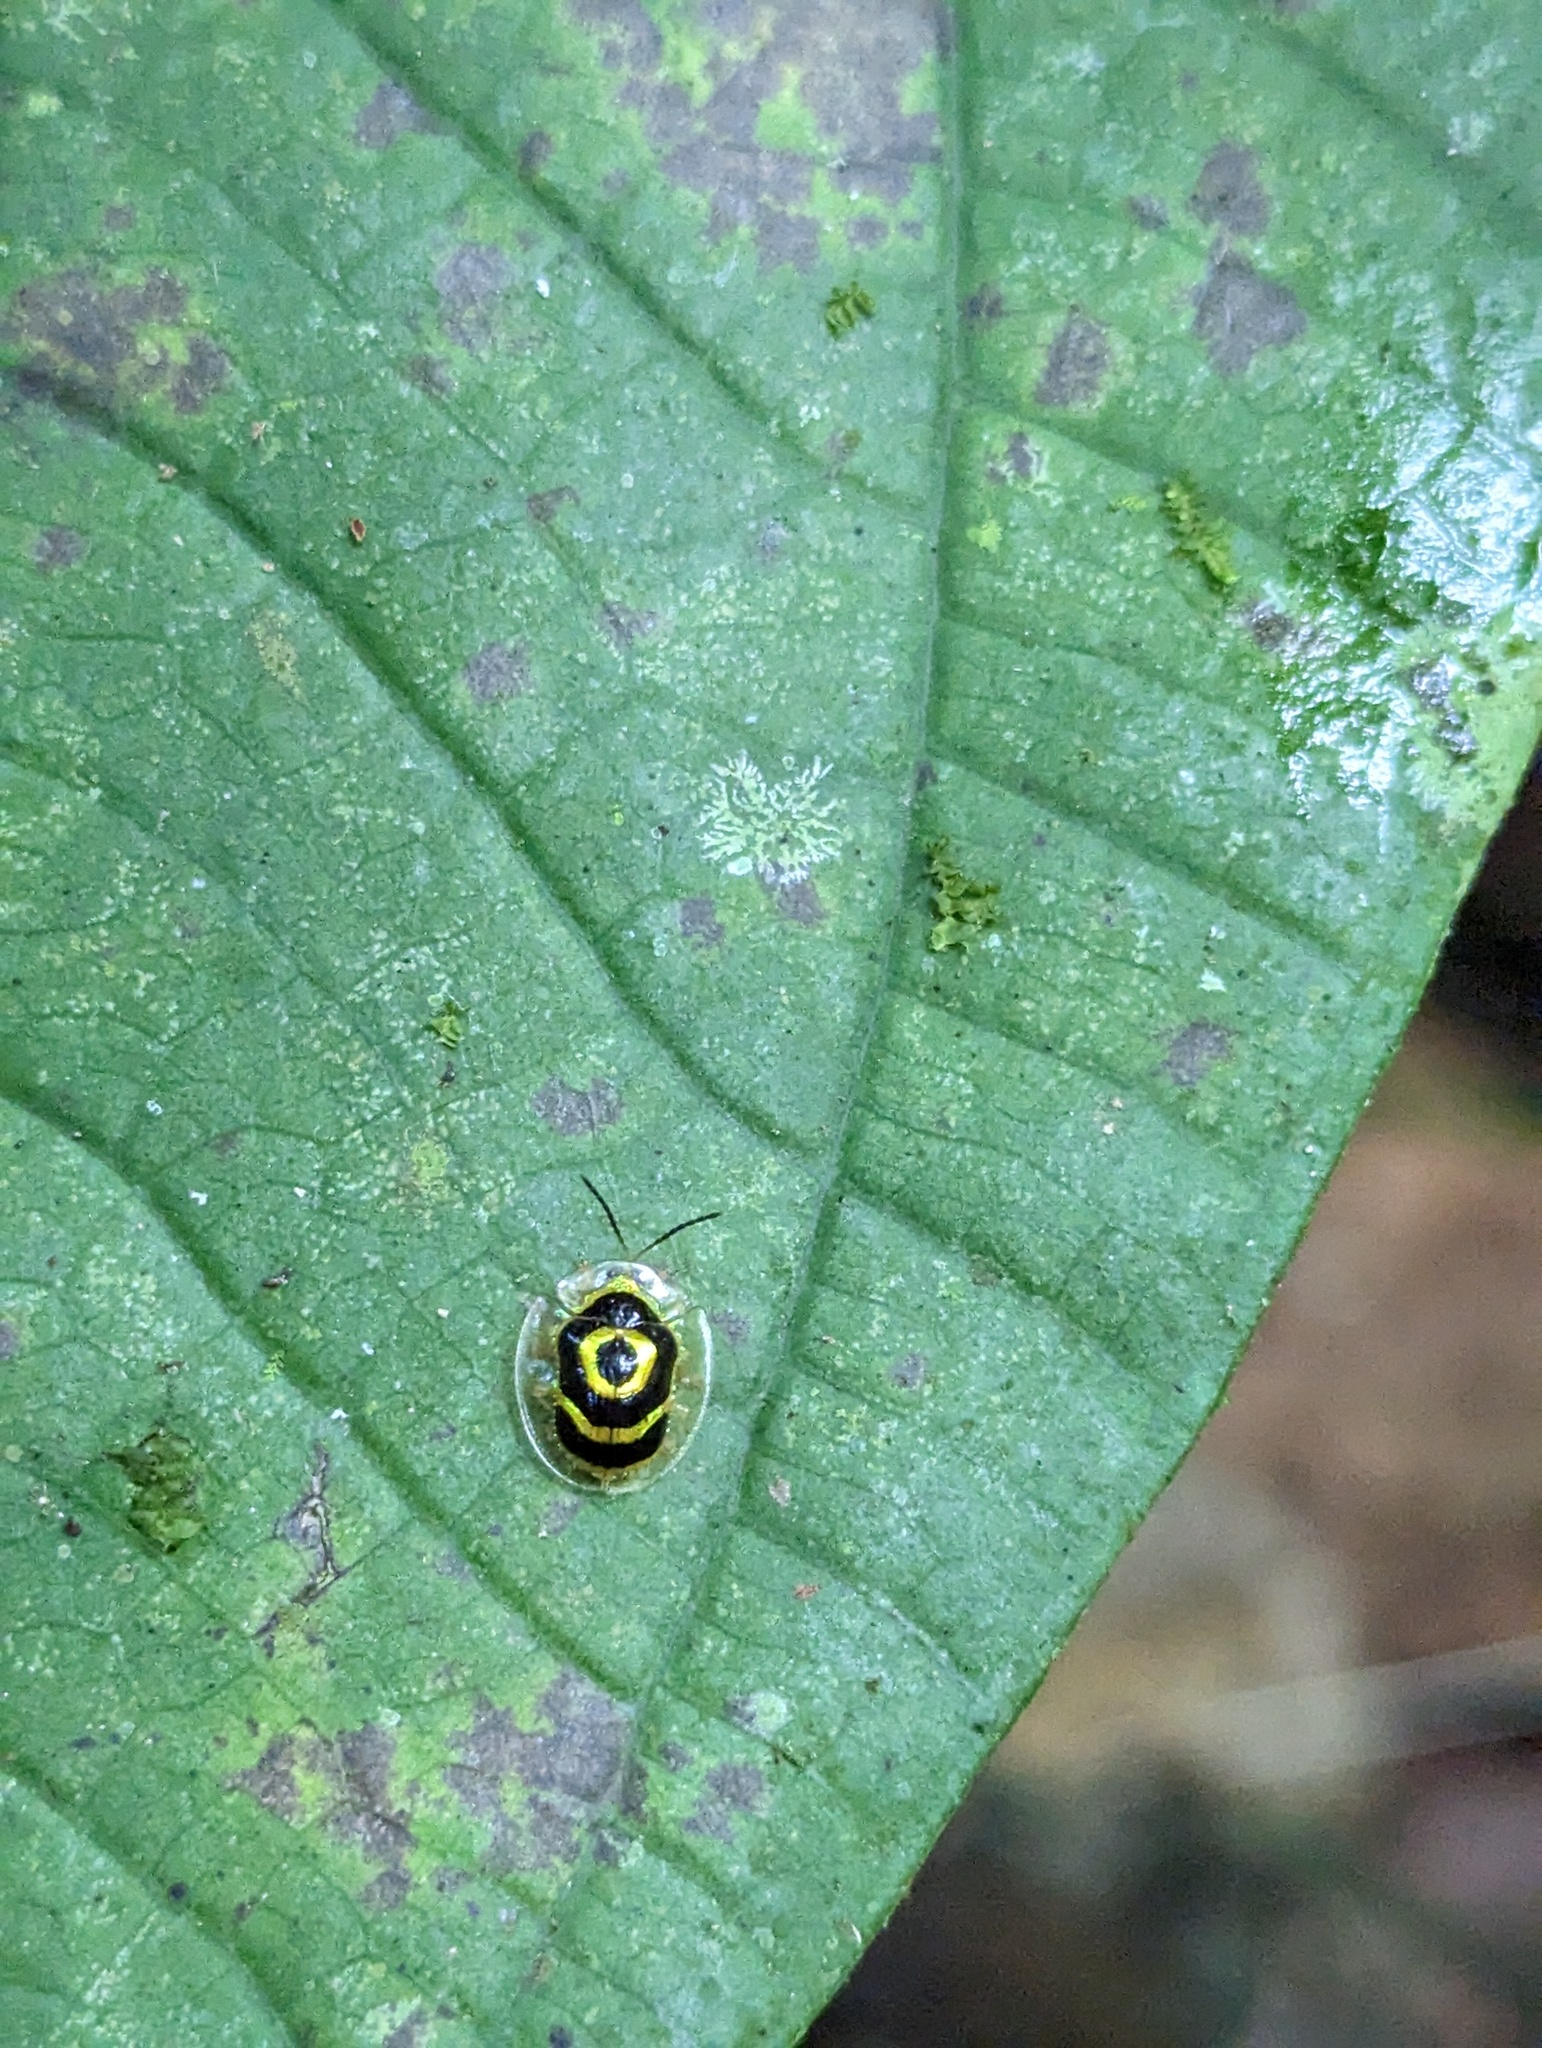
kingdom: Animalia
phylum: Arthropoda
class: Insecta
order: Coleoptera
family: Chrysomelidae
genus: Ischnocodia
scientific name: Ischnocodia annulus
